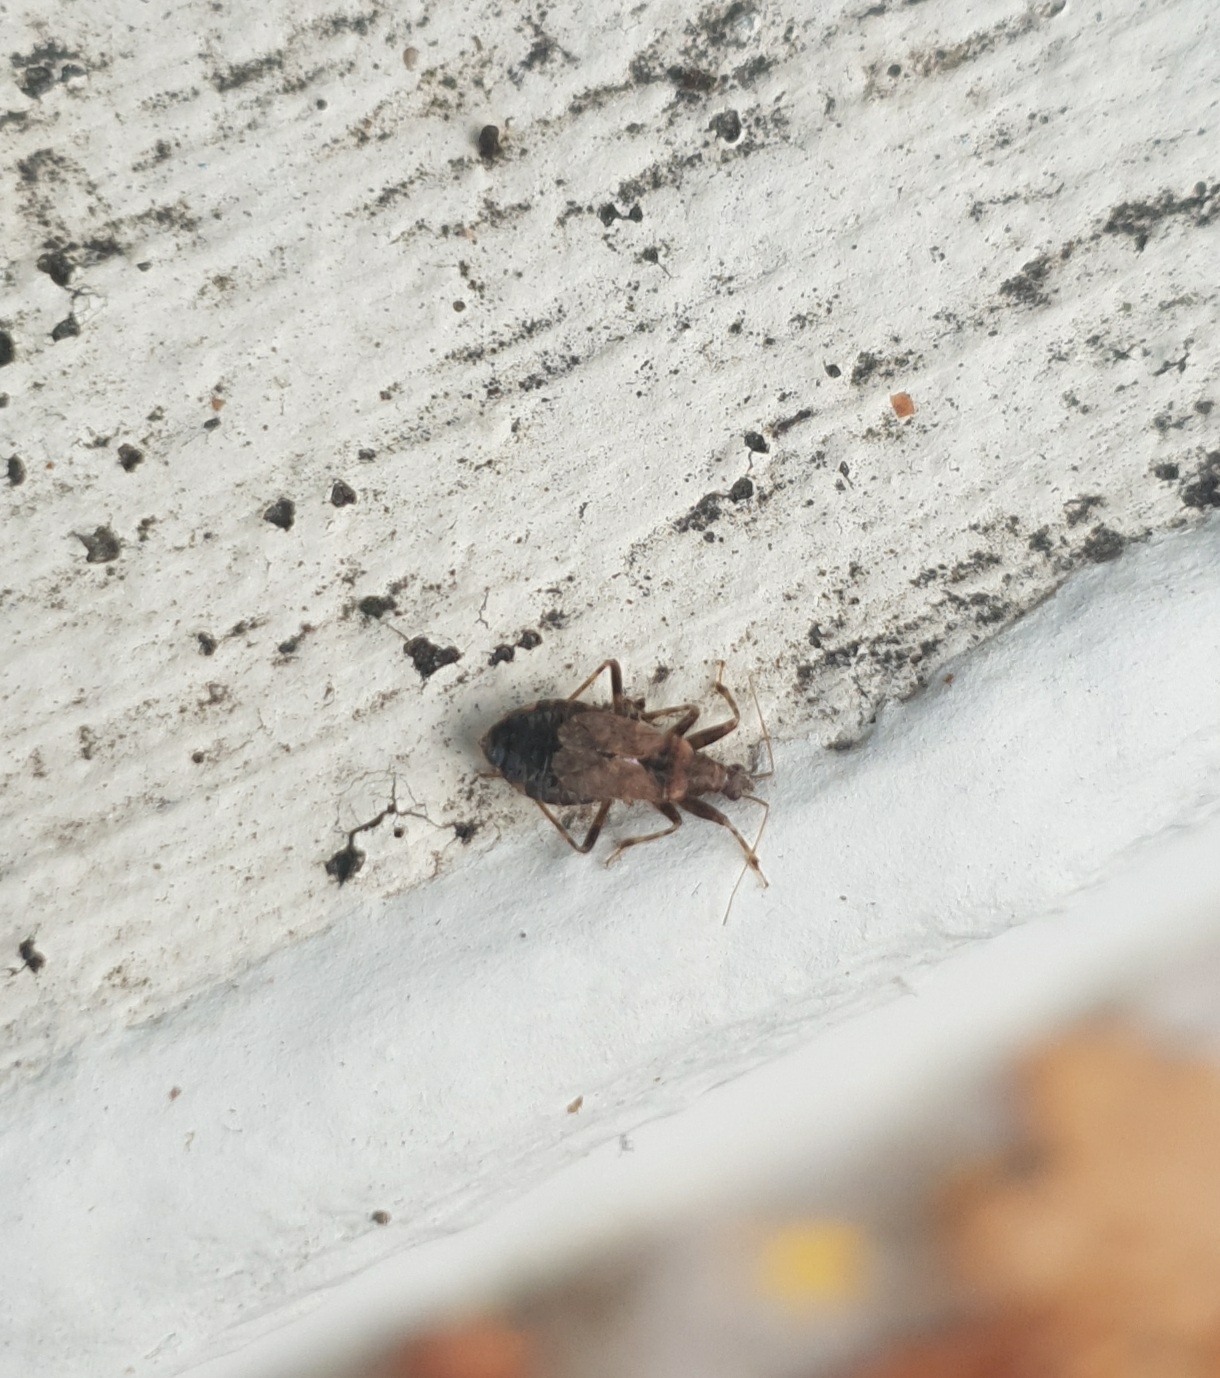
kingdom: Animalia
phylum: Arthropoda
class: Insecta
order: Hemiptera
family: Nabidae
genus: Himacerus
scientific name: Himacerus mirmicoides
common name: Ant damsel bug
